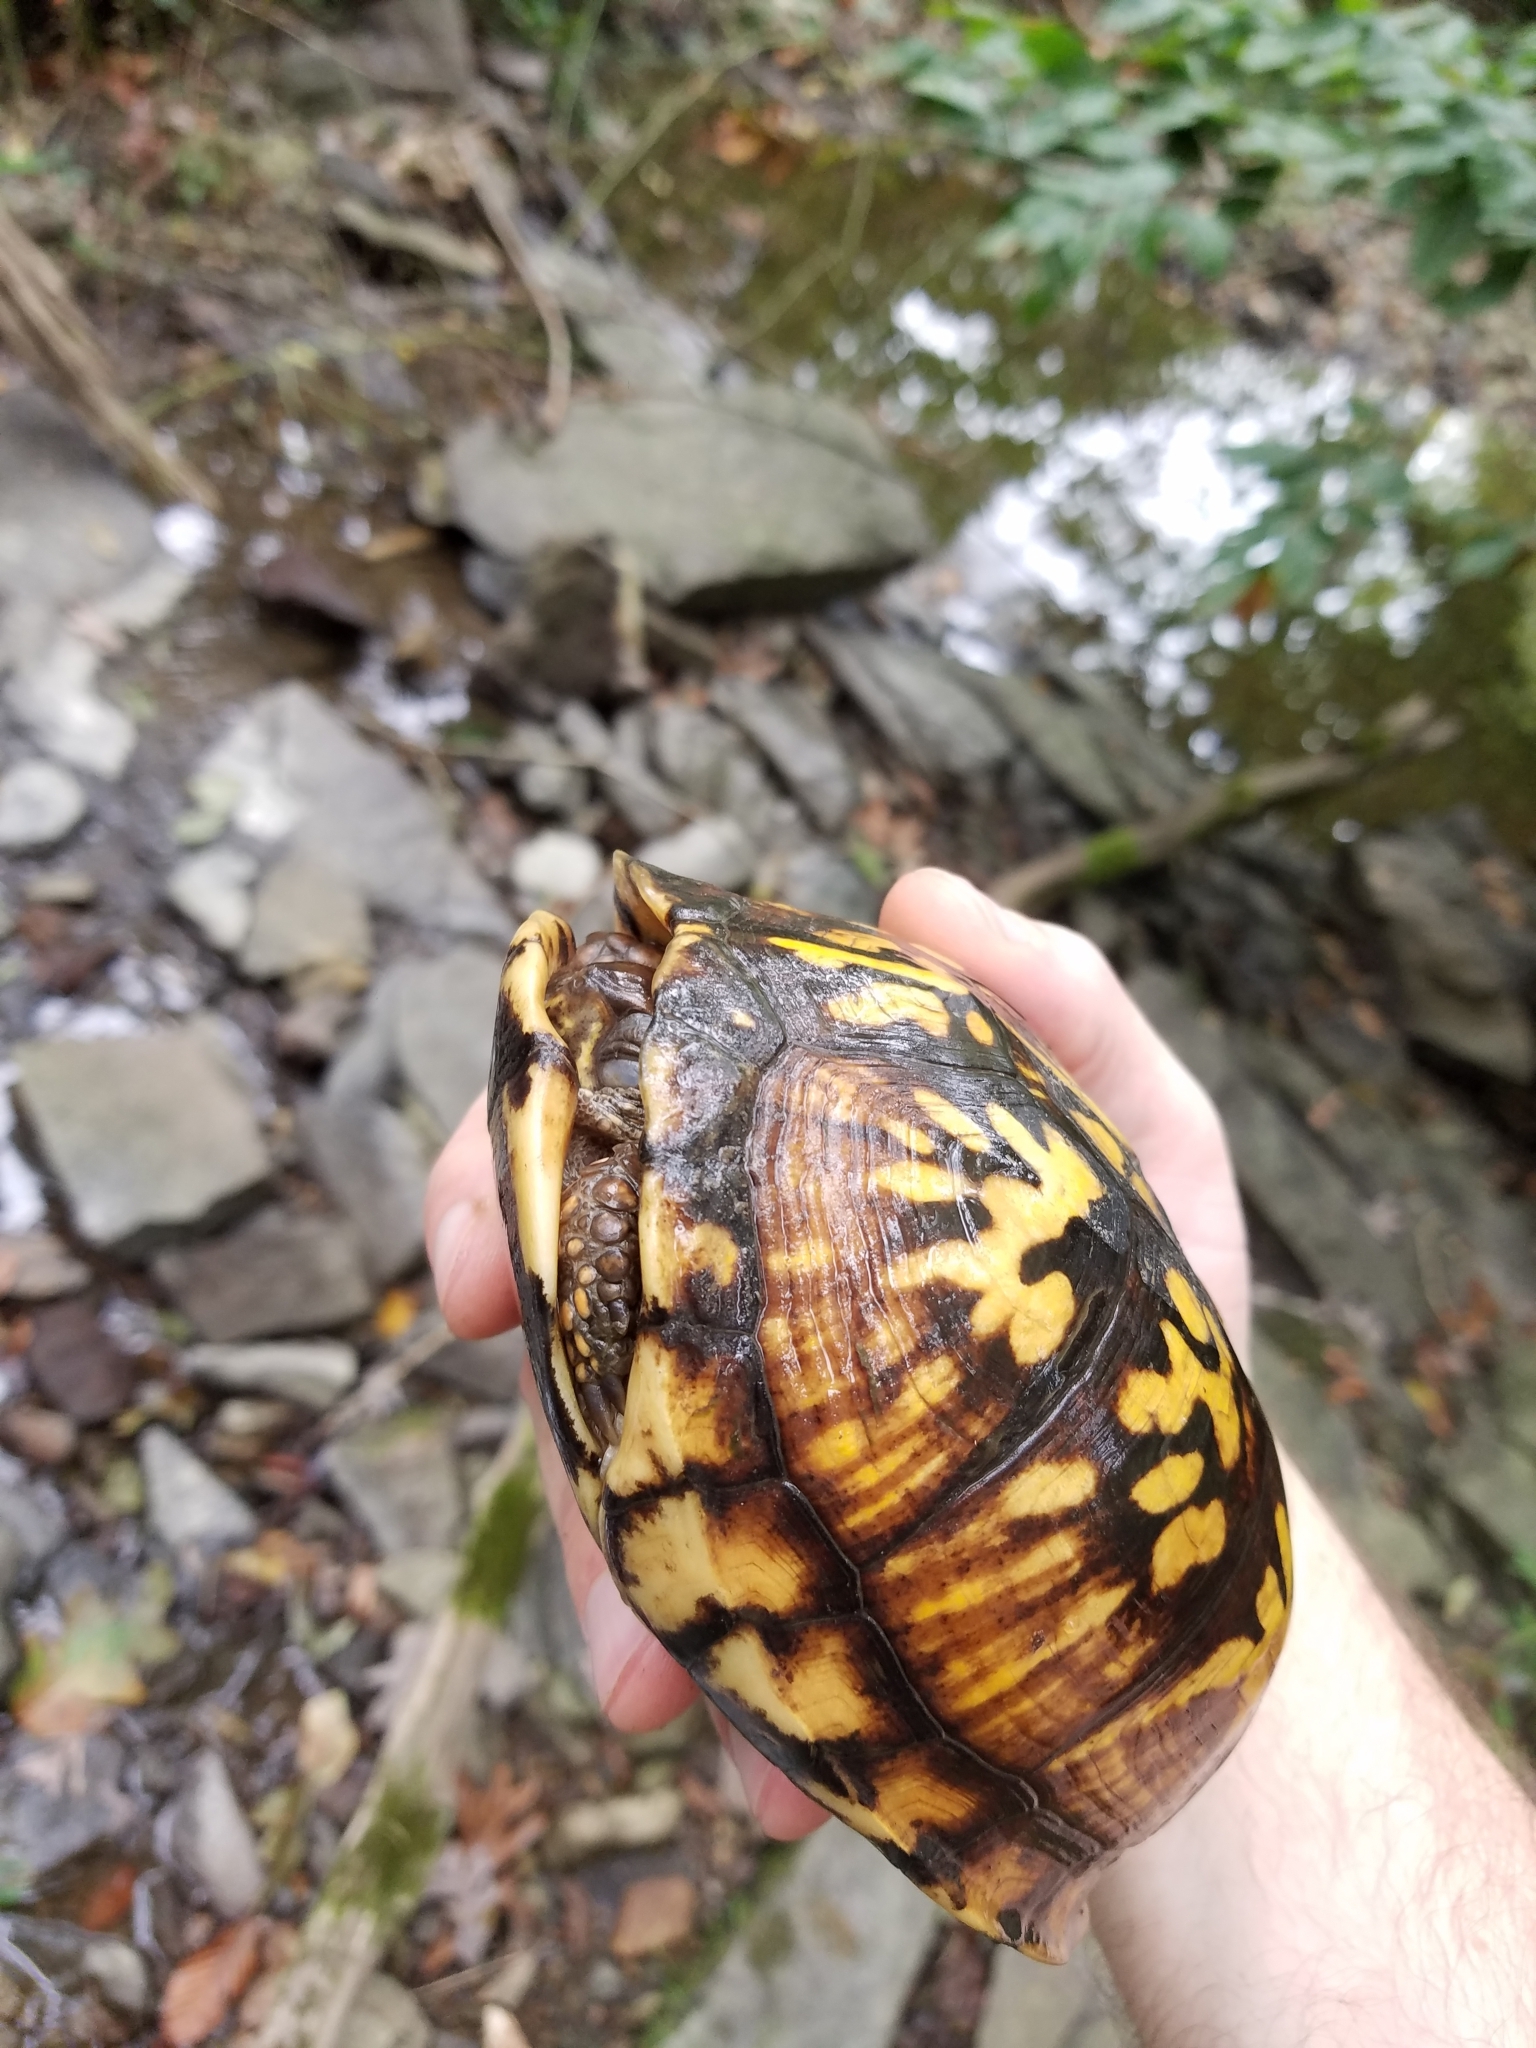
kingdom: Animalia
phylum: Chordata
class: Testudines
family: Emydidae
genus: Terrapene
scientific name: Terrapene carolina
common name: Common box turtle
